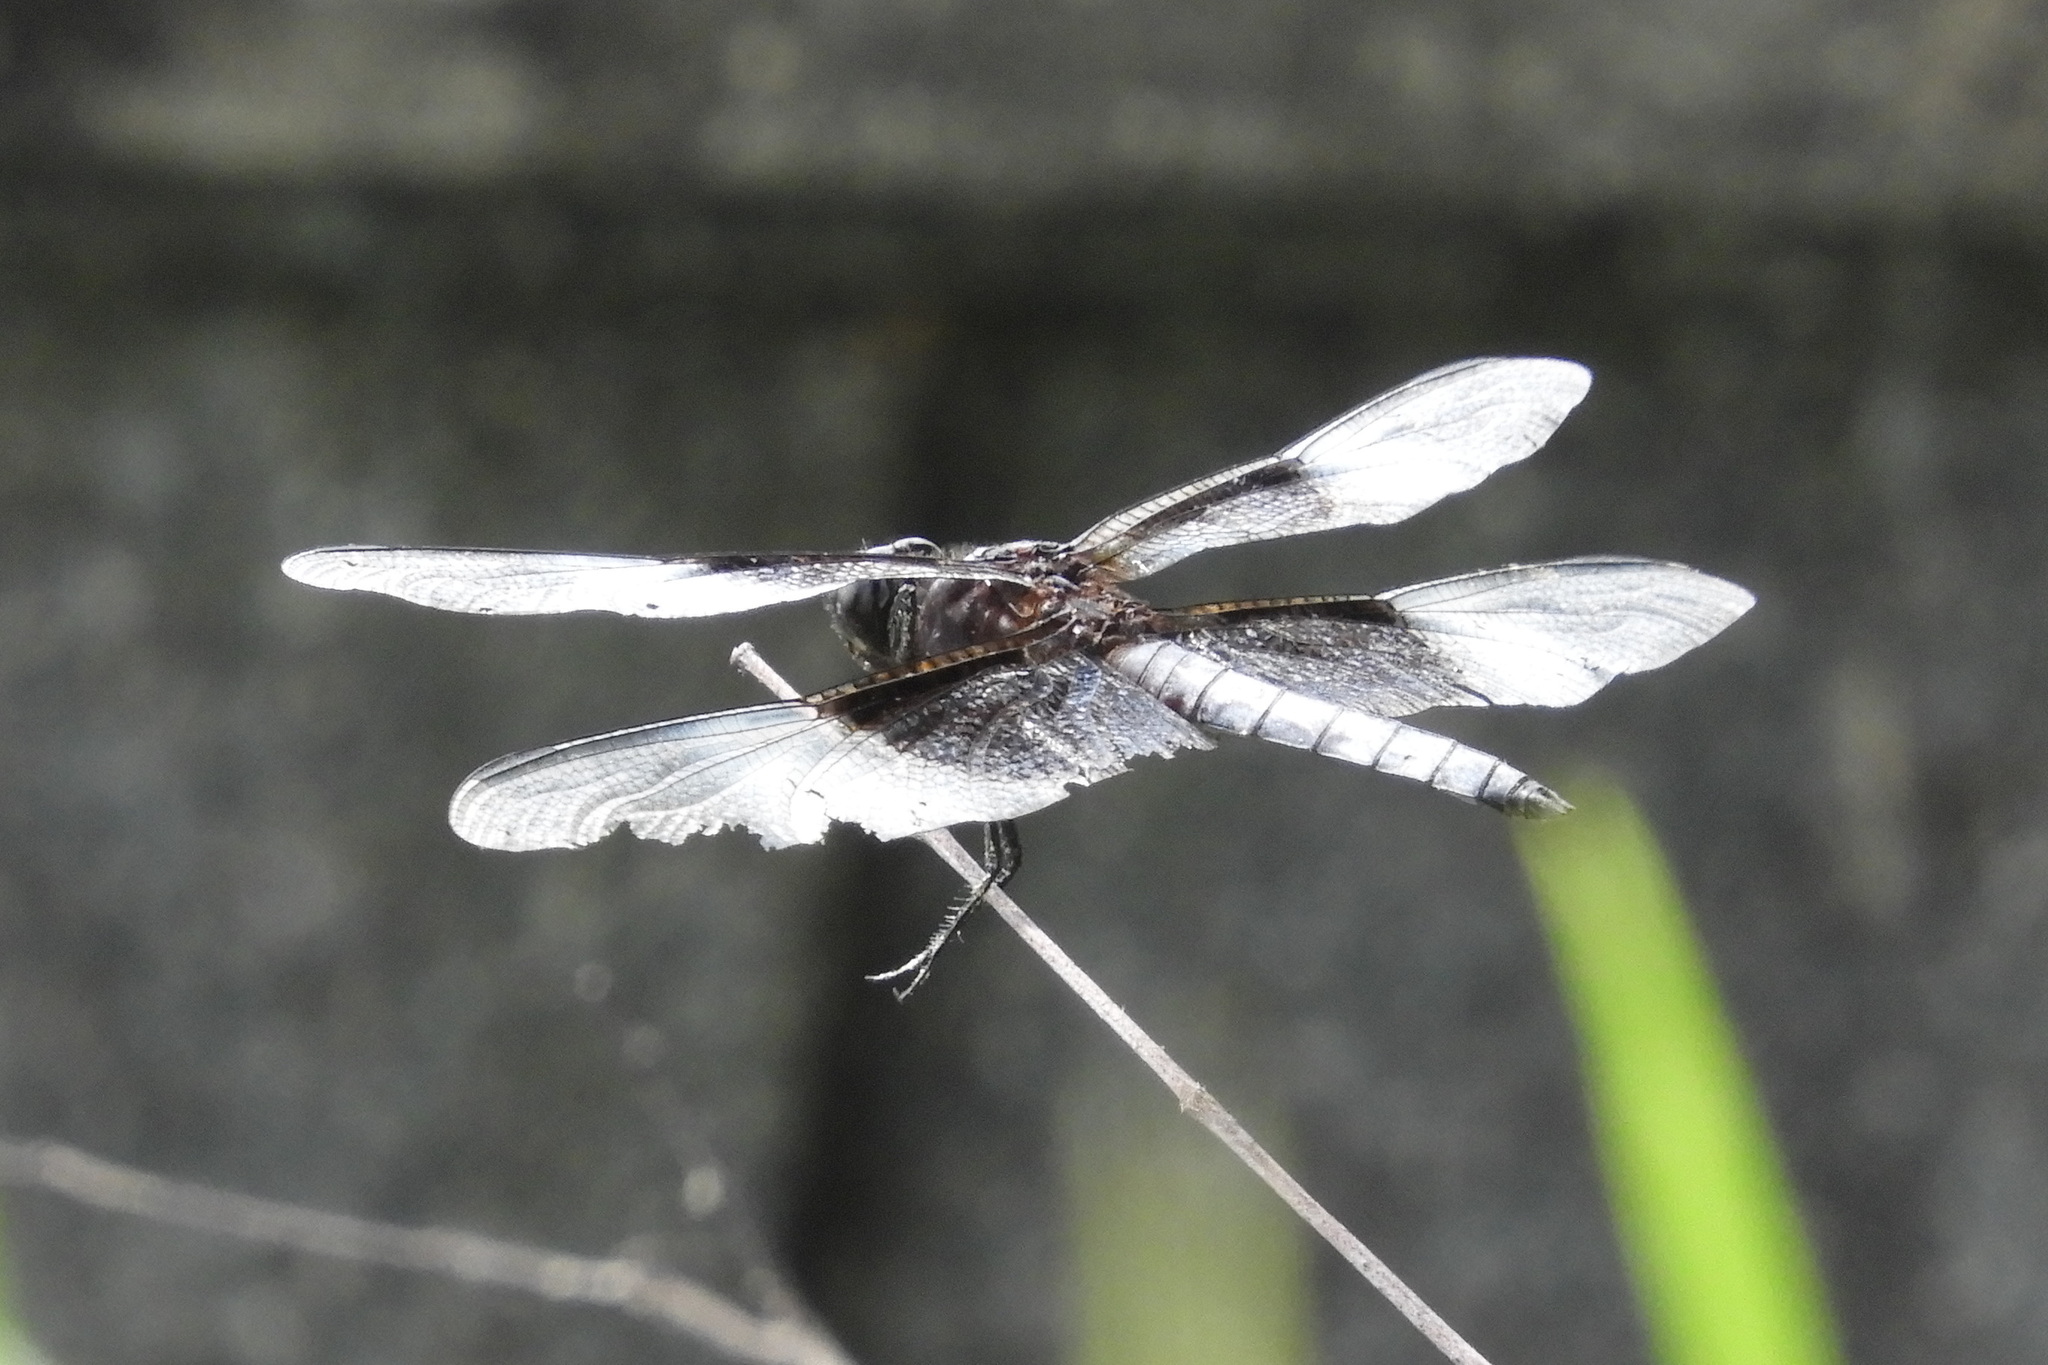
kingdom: Animalia
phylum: Arthropoda
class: Insecta
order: Odonata
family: Libellulidae
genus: Libellula
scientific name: Libellula luctuosa
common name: Widow skimmer
